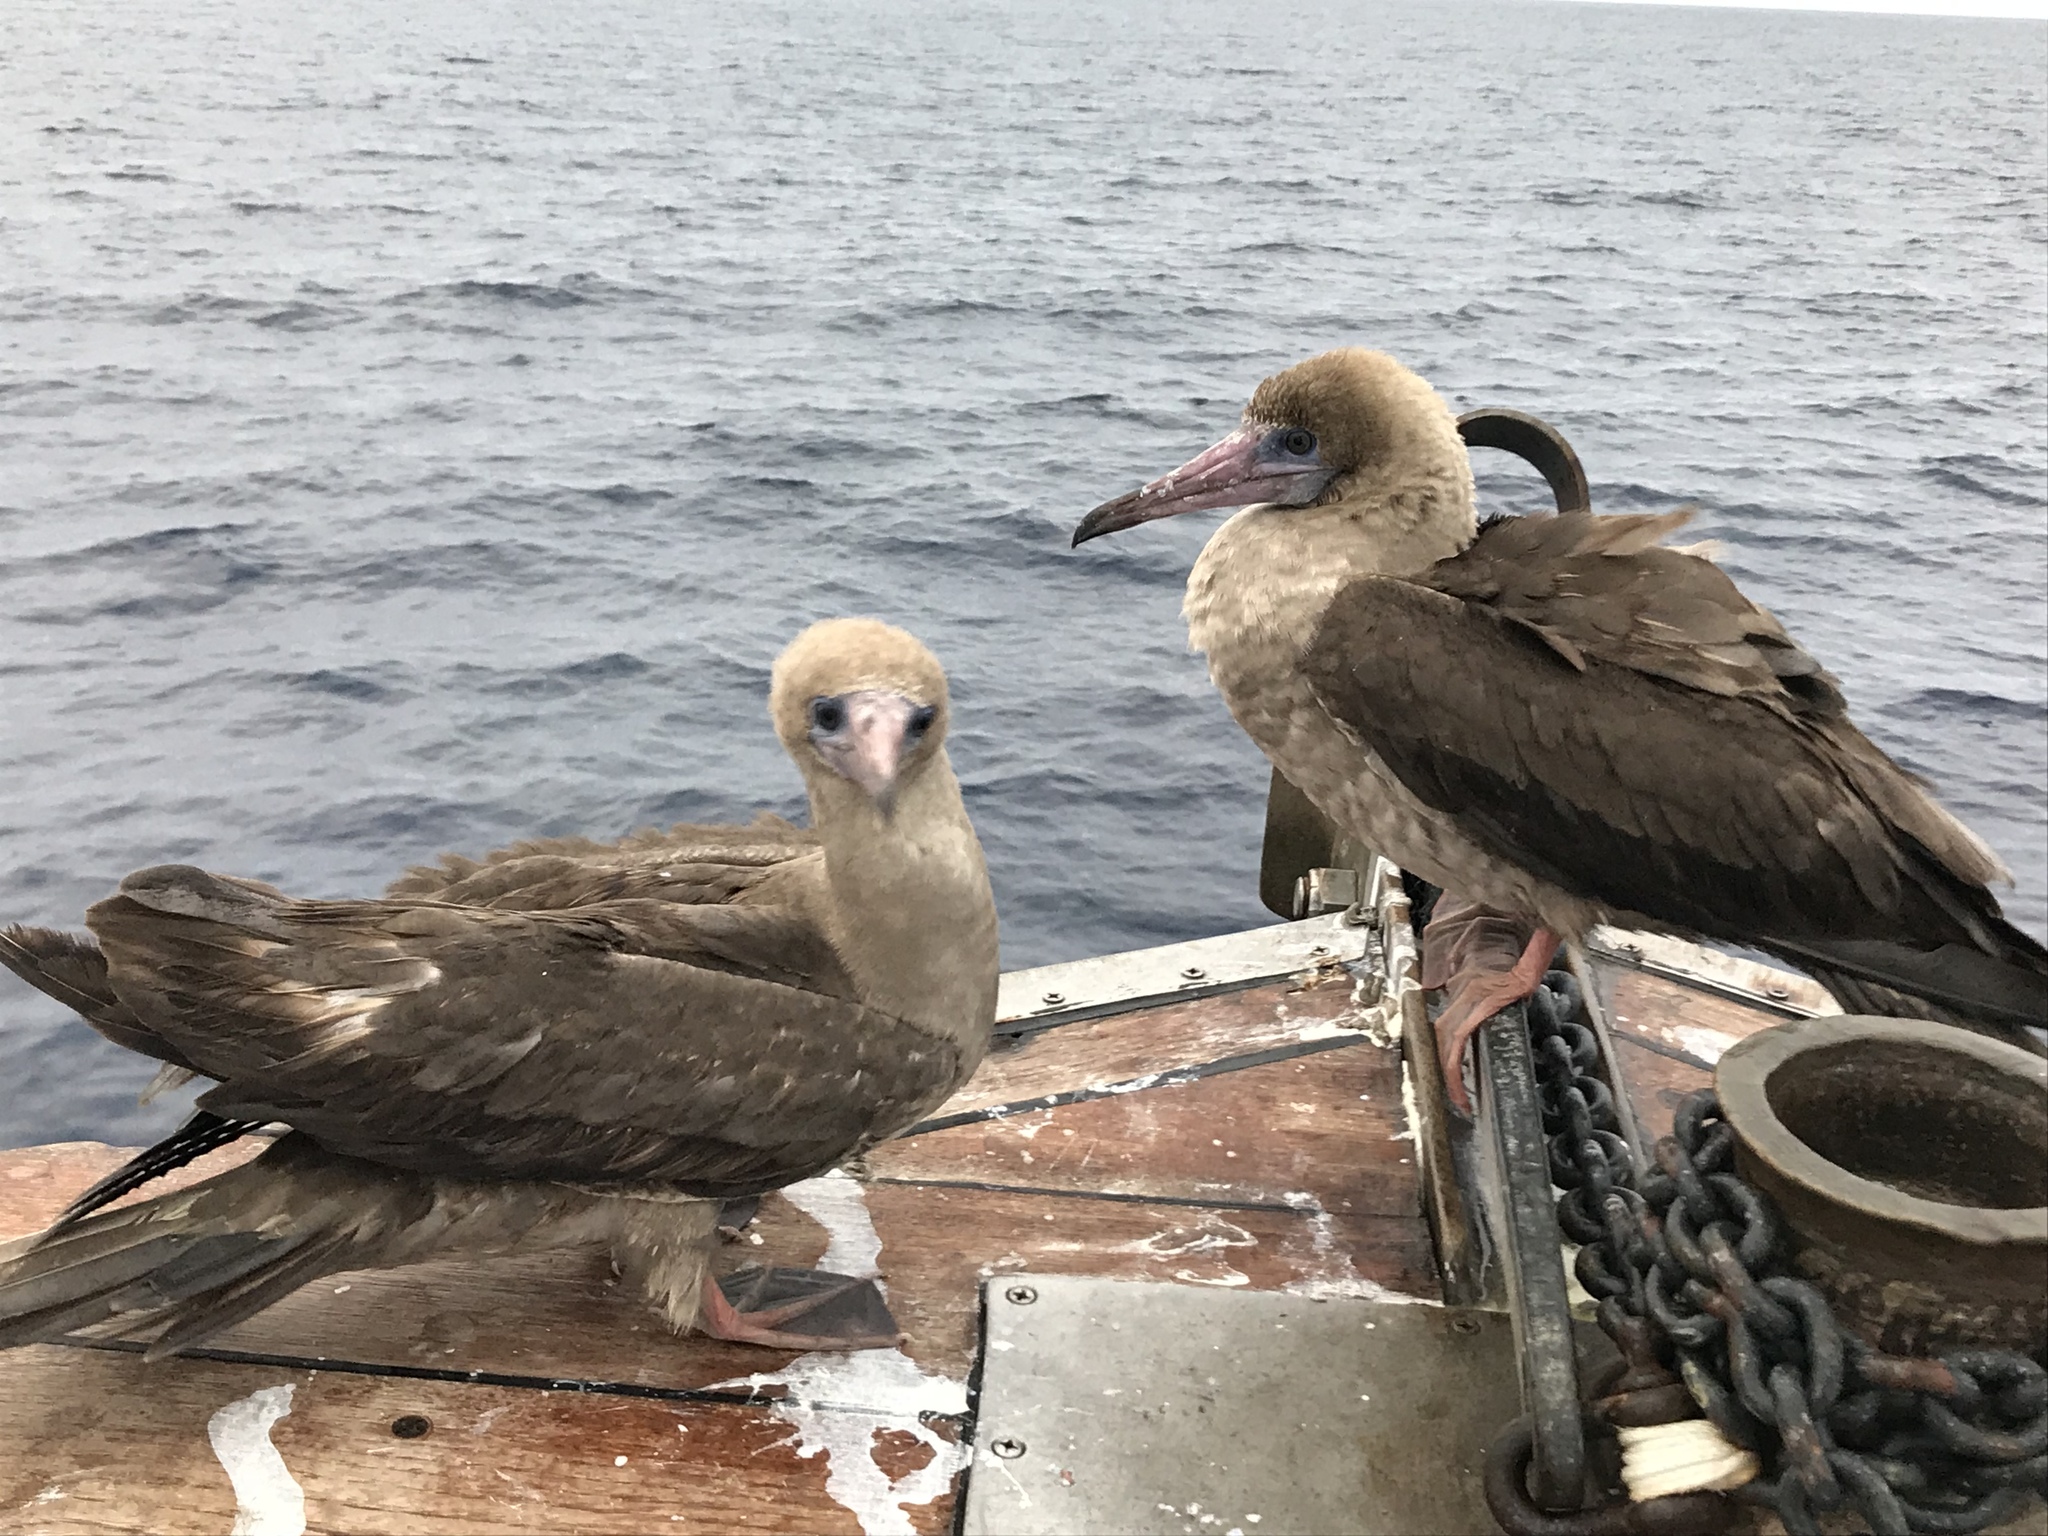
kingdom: Animalia
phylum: Chordata
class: Aves
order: Suliformes
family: Sulidae
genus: Sula
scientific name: Sula sula
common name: Red-footed booby
